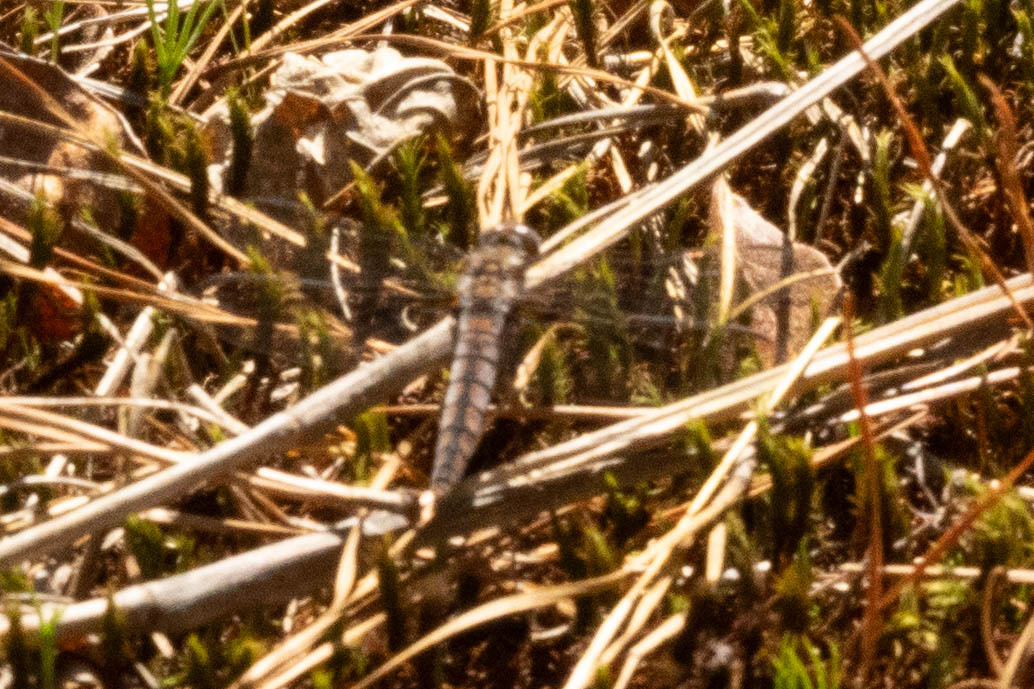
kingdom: Animalia
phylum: Arthropoda
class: Insecta
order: Odonata
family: Libellulidae
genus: Ladona
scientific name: Ladona deplanata
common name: Blue corporal
